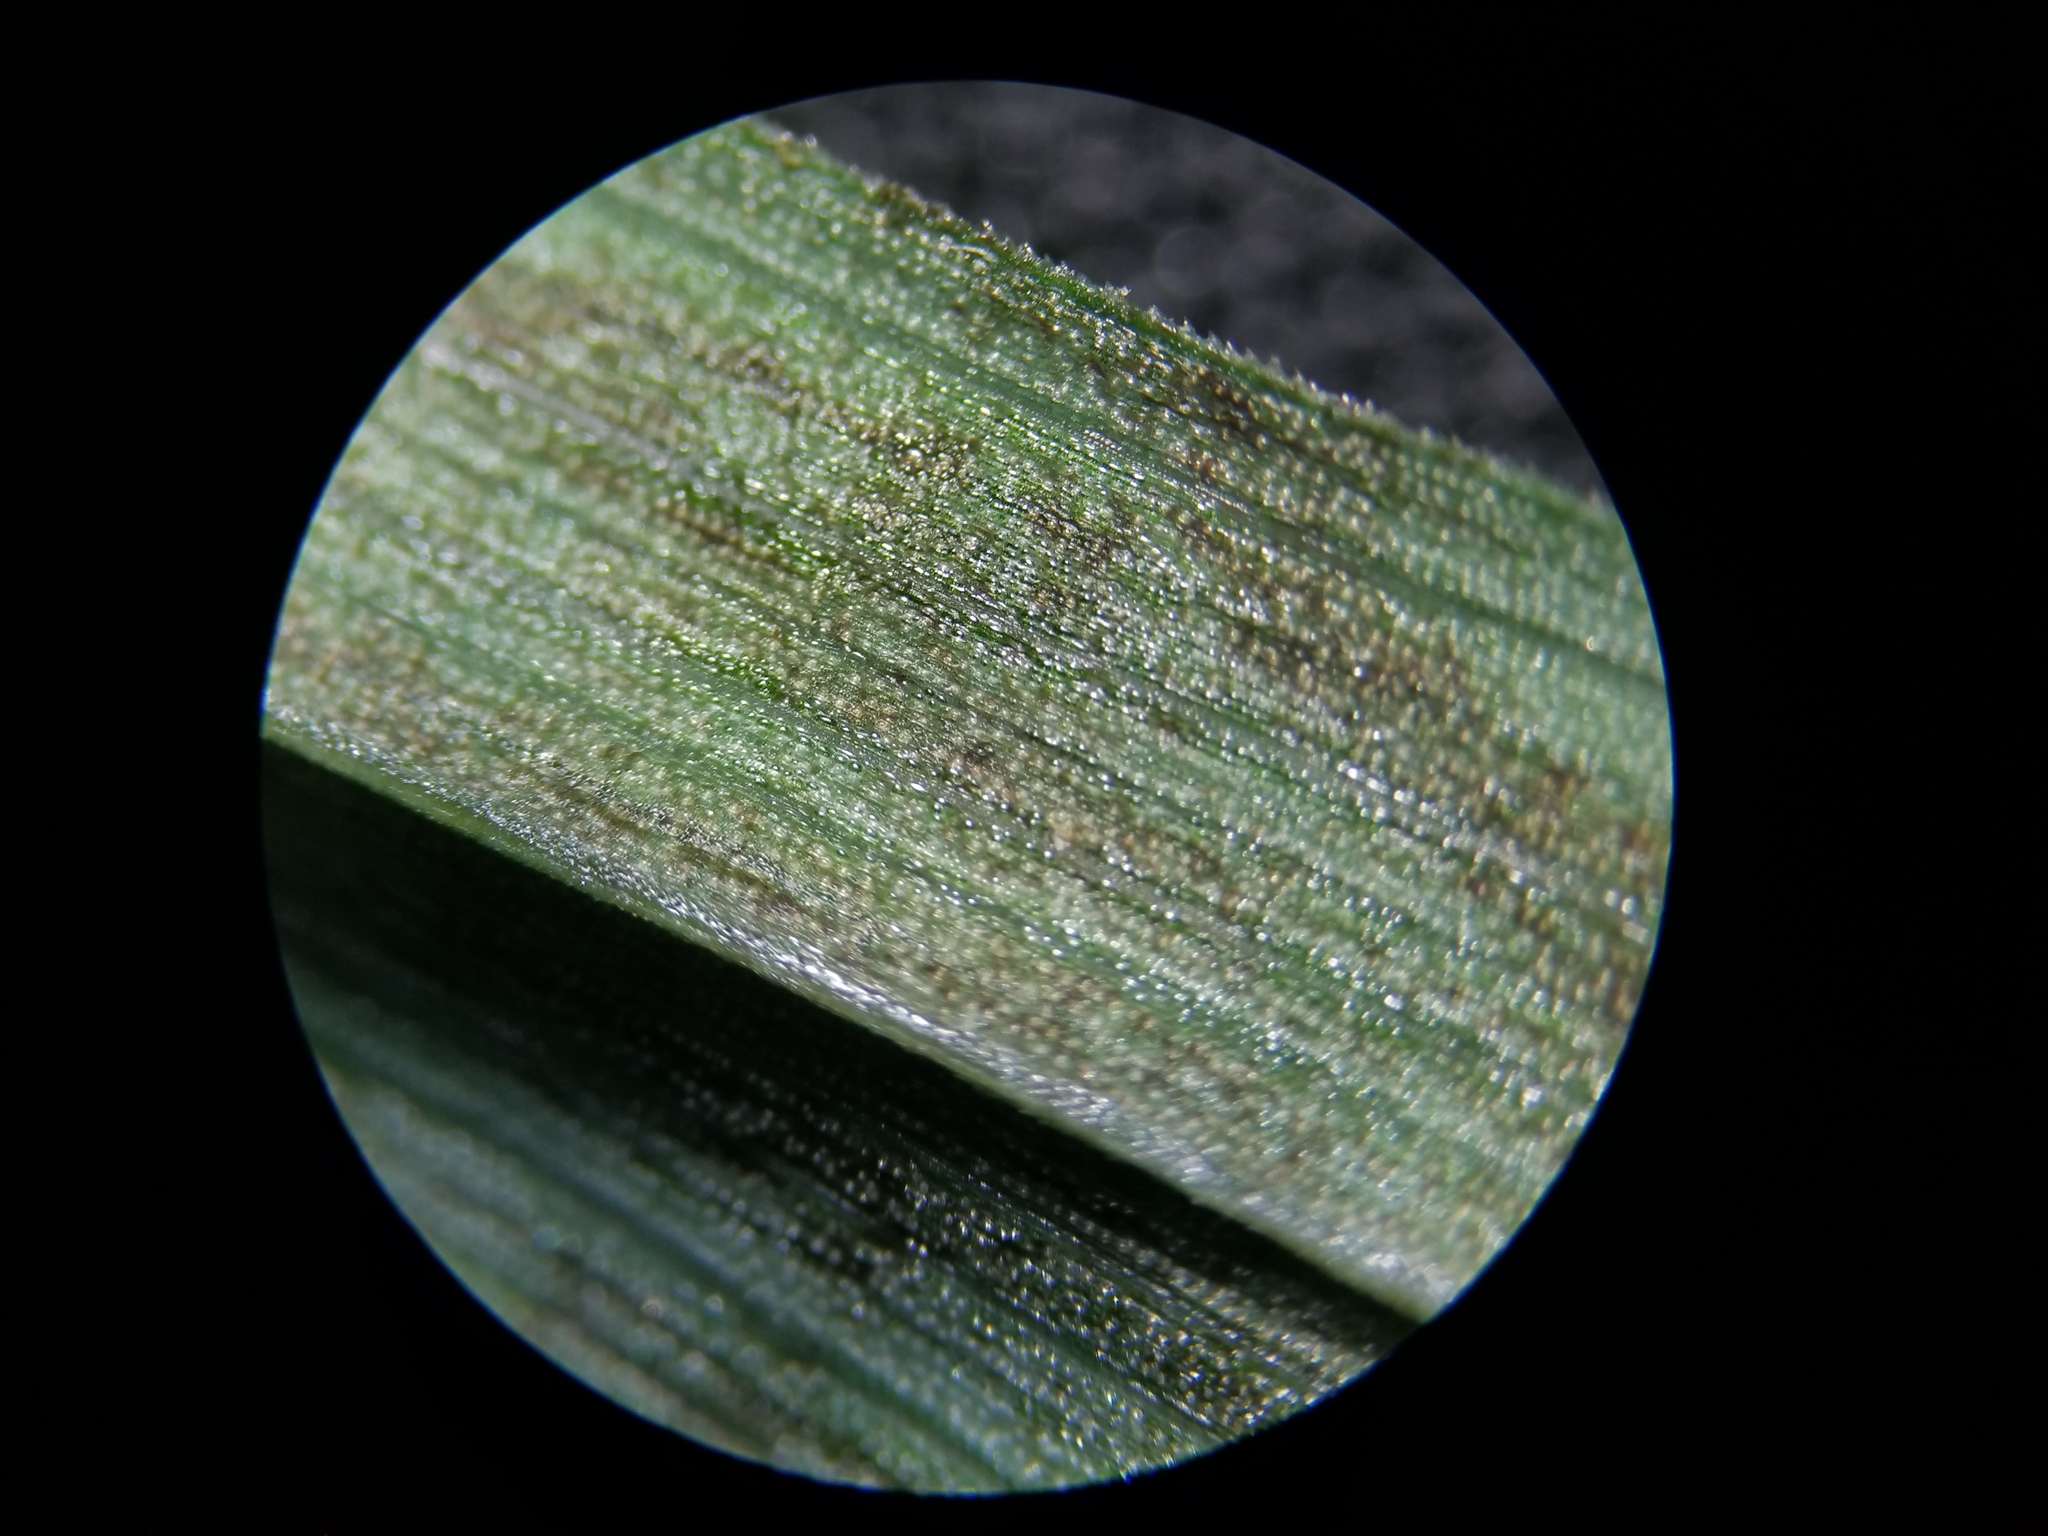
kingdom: Plantae
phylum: Tracheophyta
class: Liliopsida
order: Poales
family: Cyperaceae
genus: Carex
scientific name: Carex striatula
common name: Lined sedge
